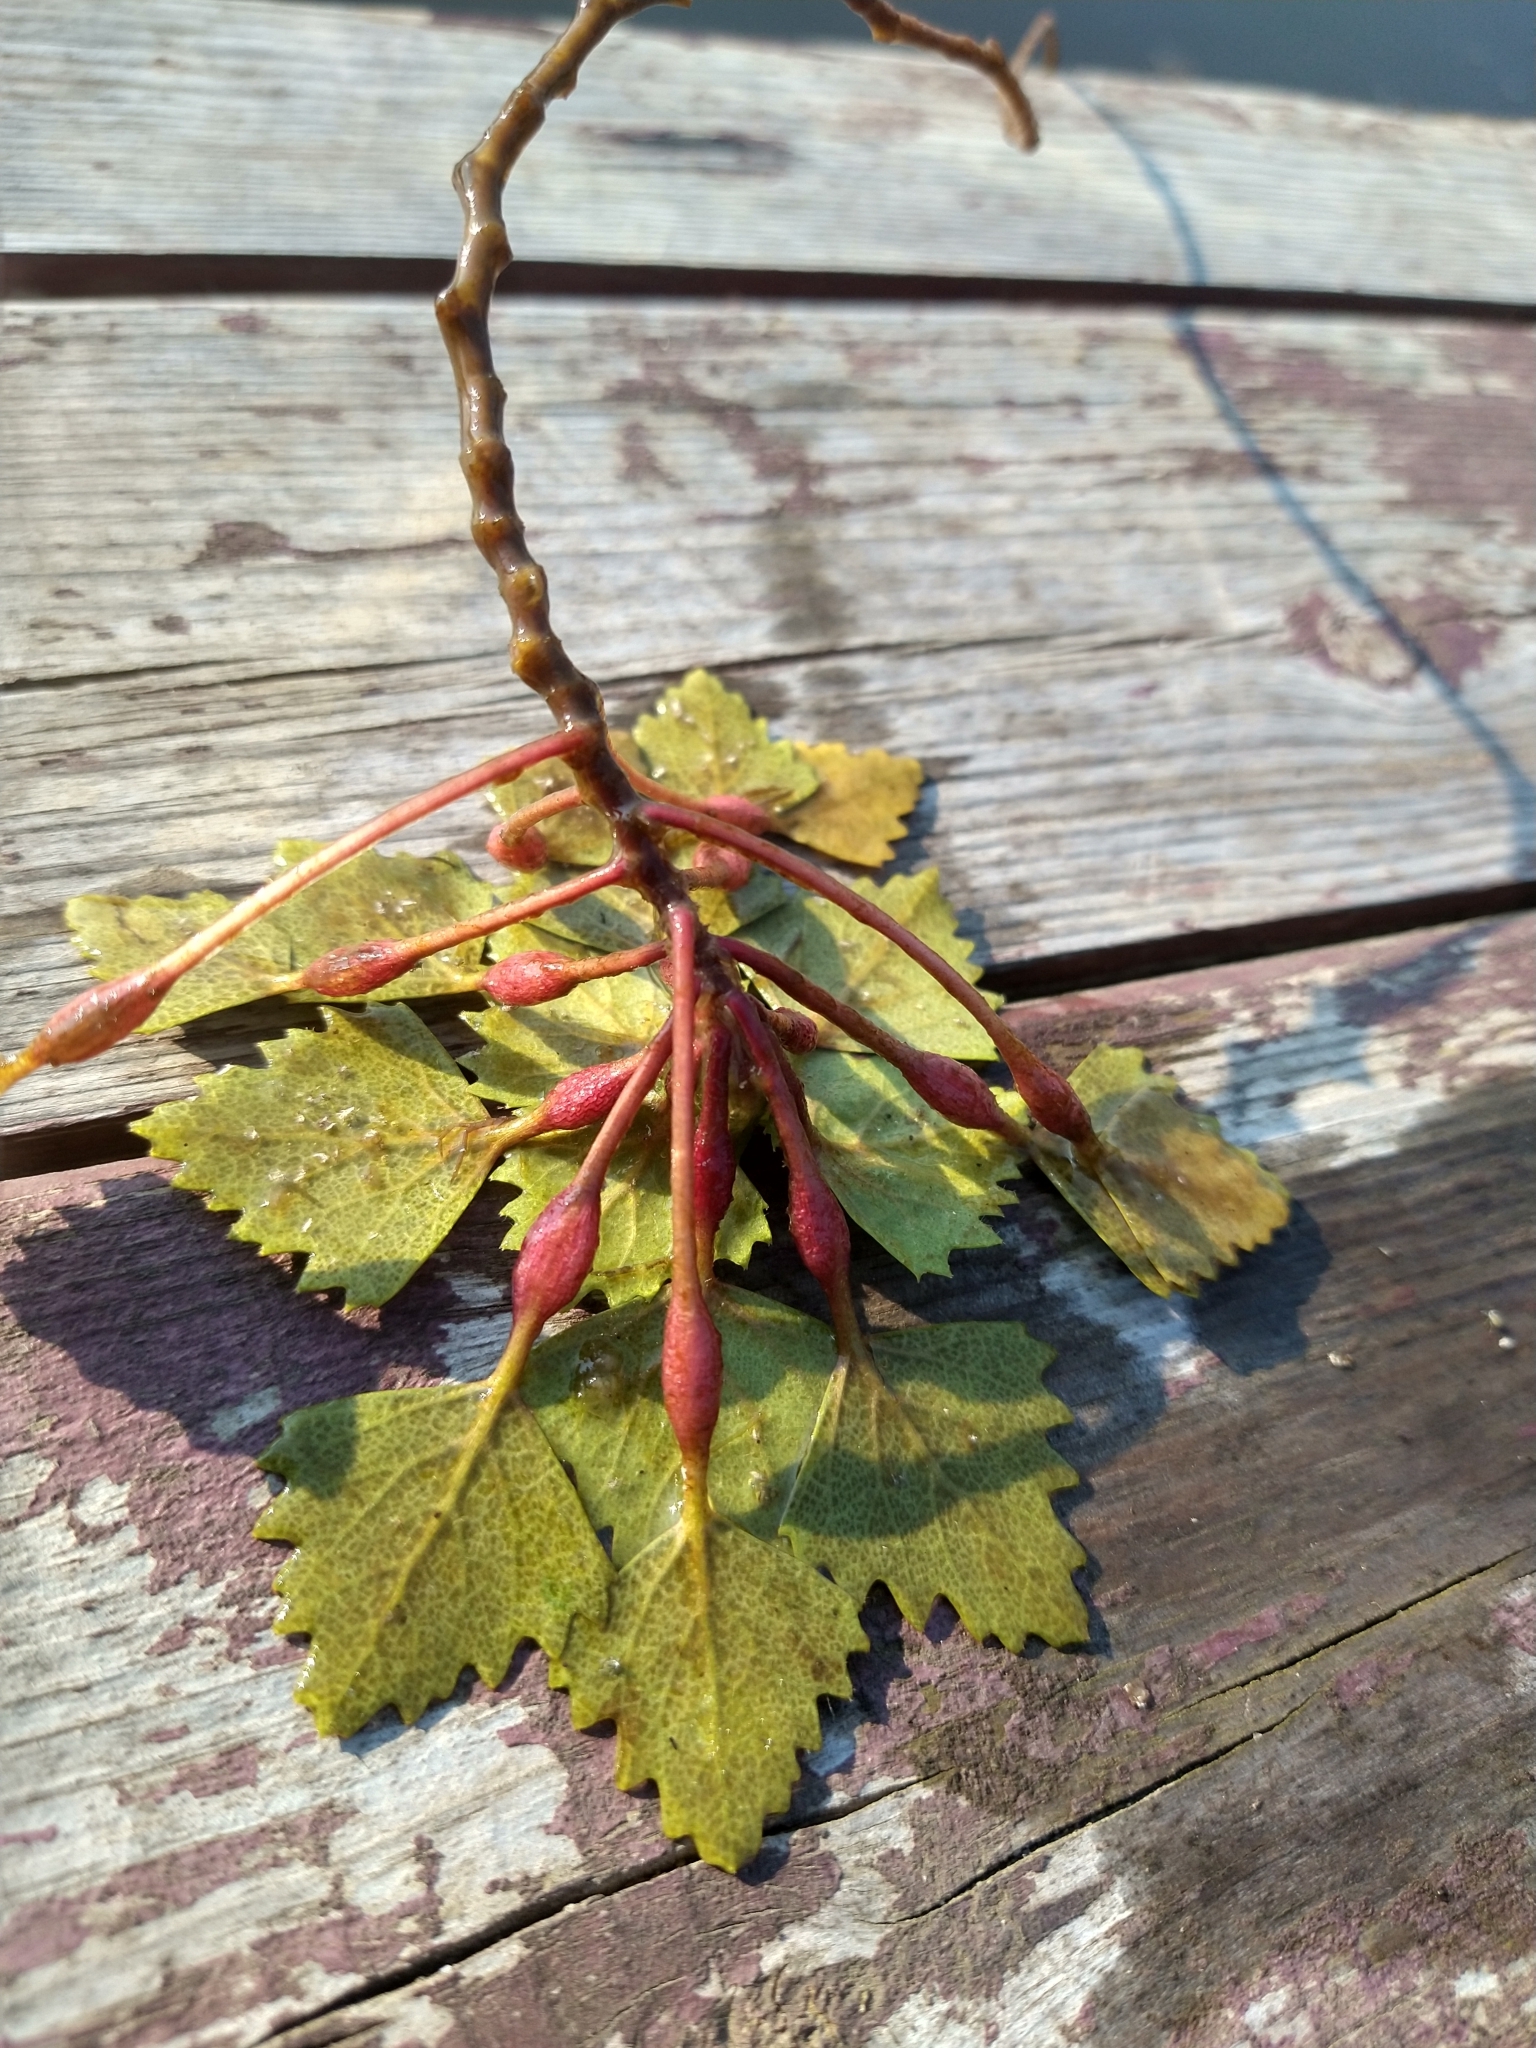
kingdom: Plantae
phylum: Tracheophyta
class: Magnoliopsida
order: Myrtales
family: Lythraceae
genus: Trapa
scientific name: Trapa natans
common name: Water chestnut
